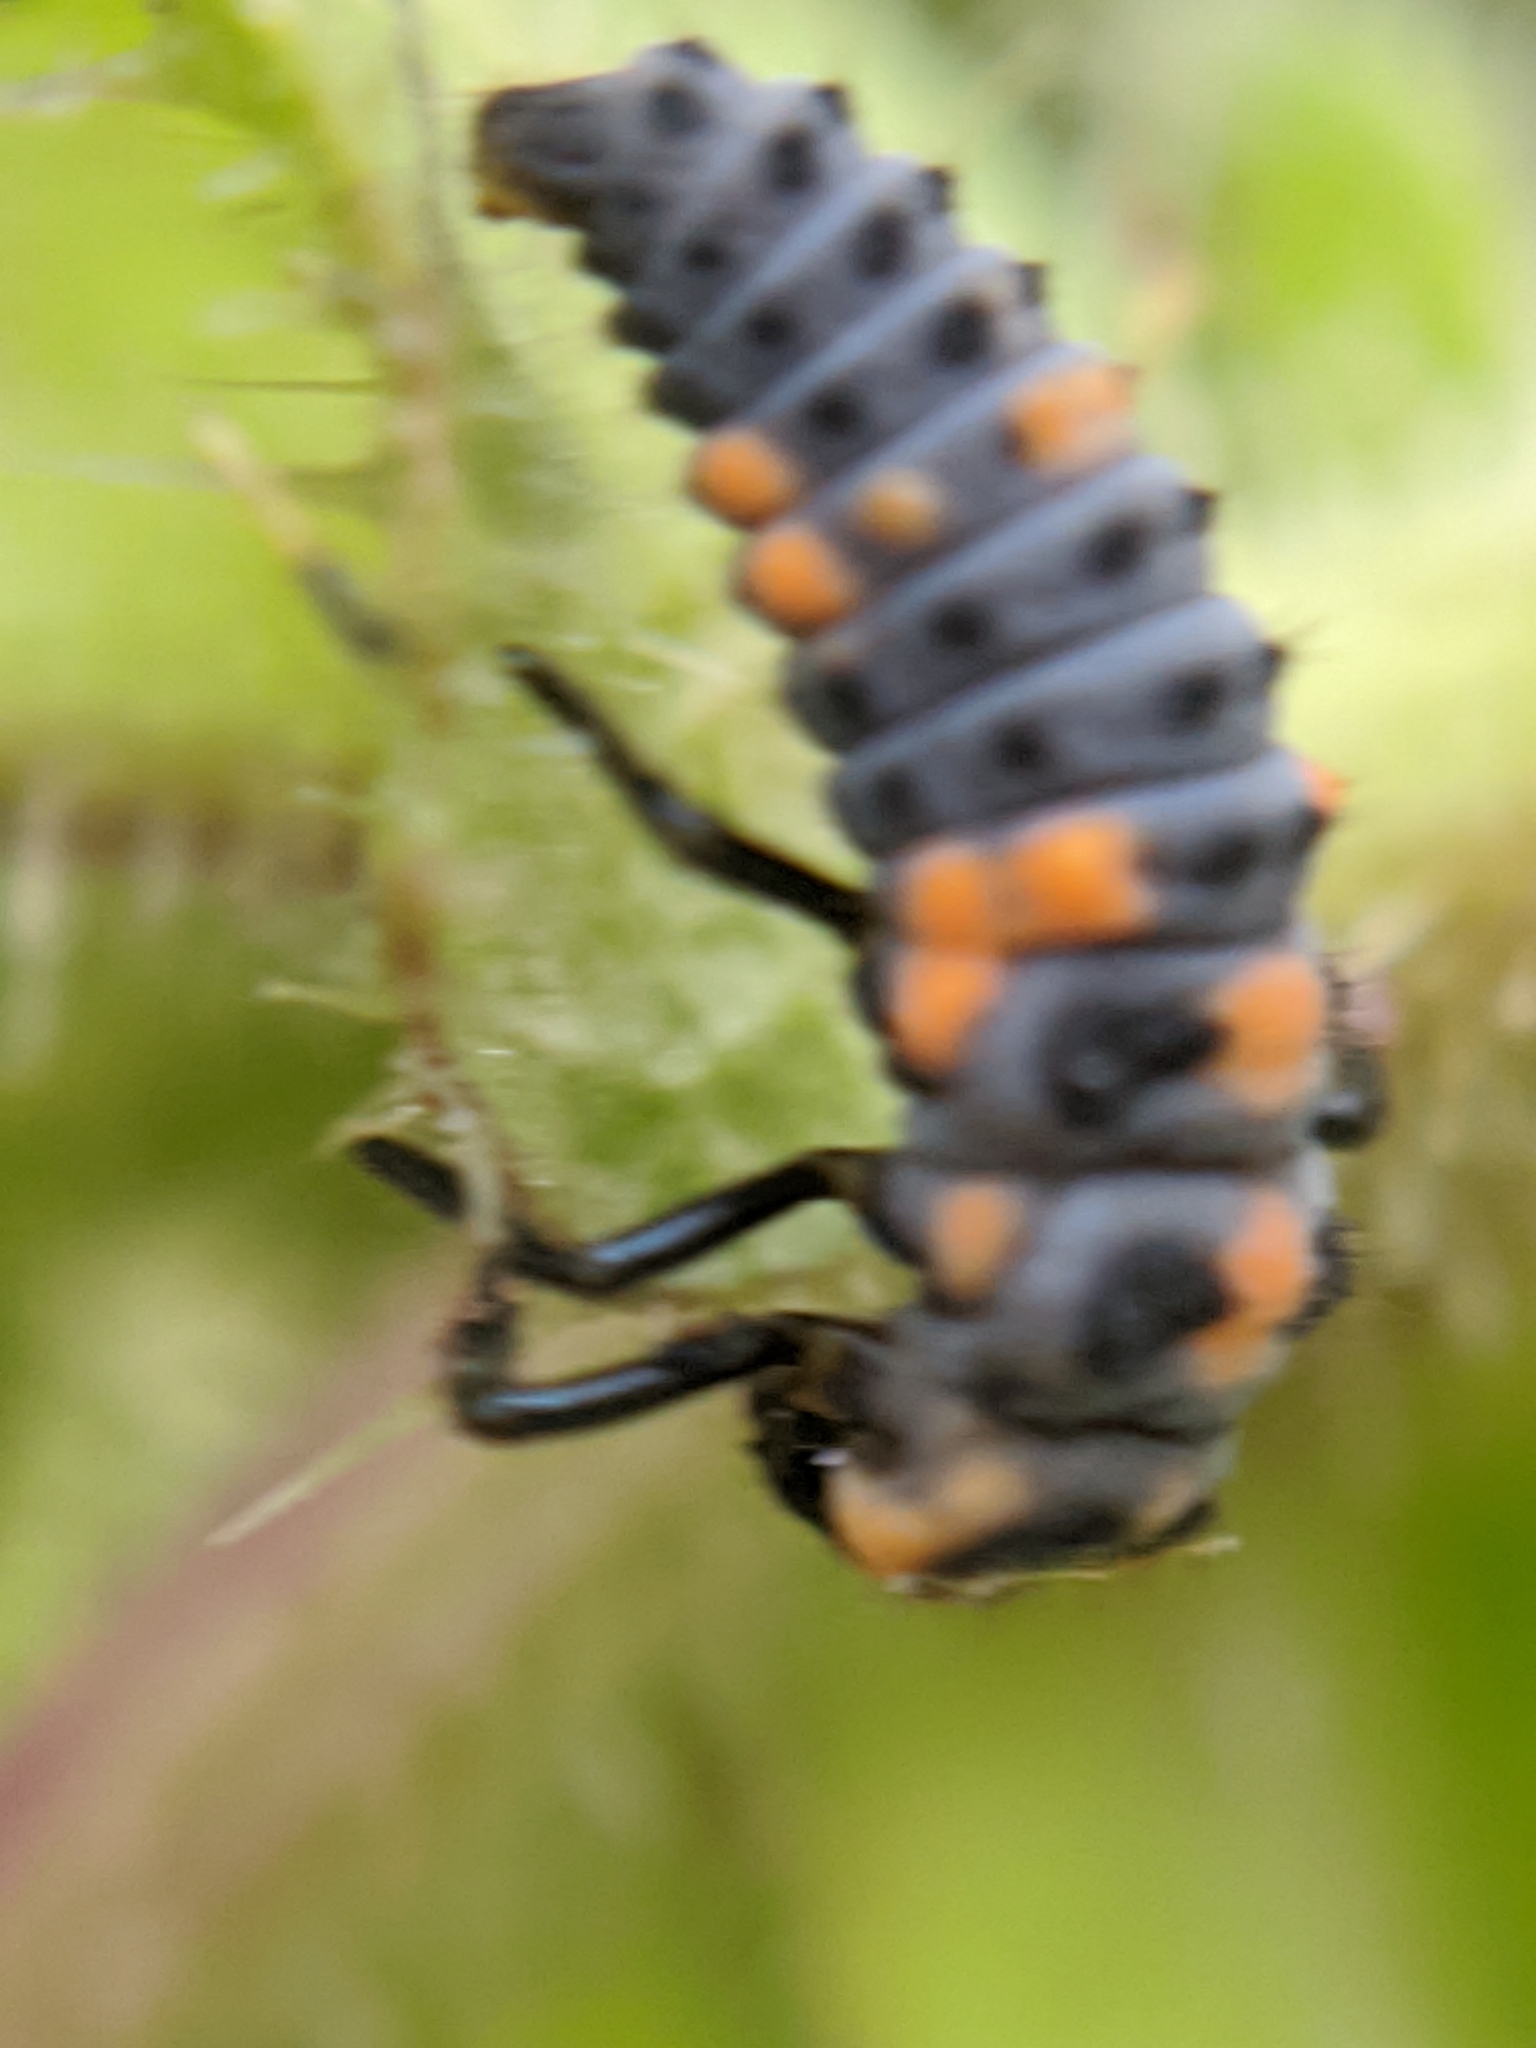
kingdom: Animalia
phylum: Arthropoda
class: Insecta
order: Coleoptera
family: Coccinellidae
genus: Cycloneda
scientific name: Cycloneda sanguinea
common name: Ladybird beetle
